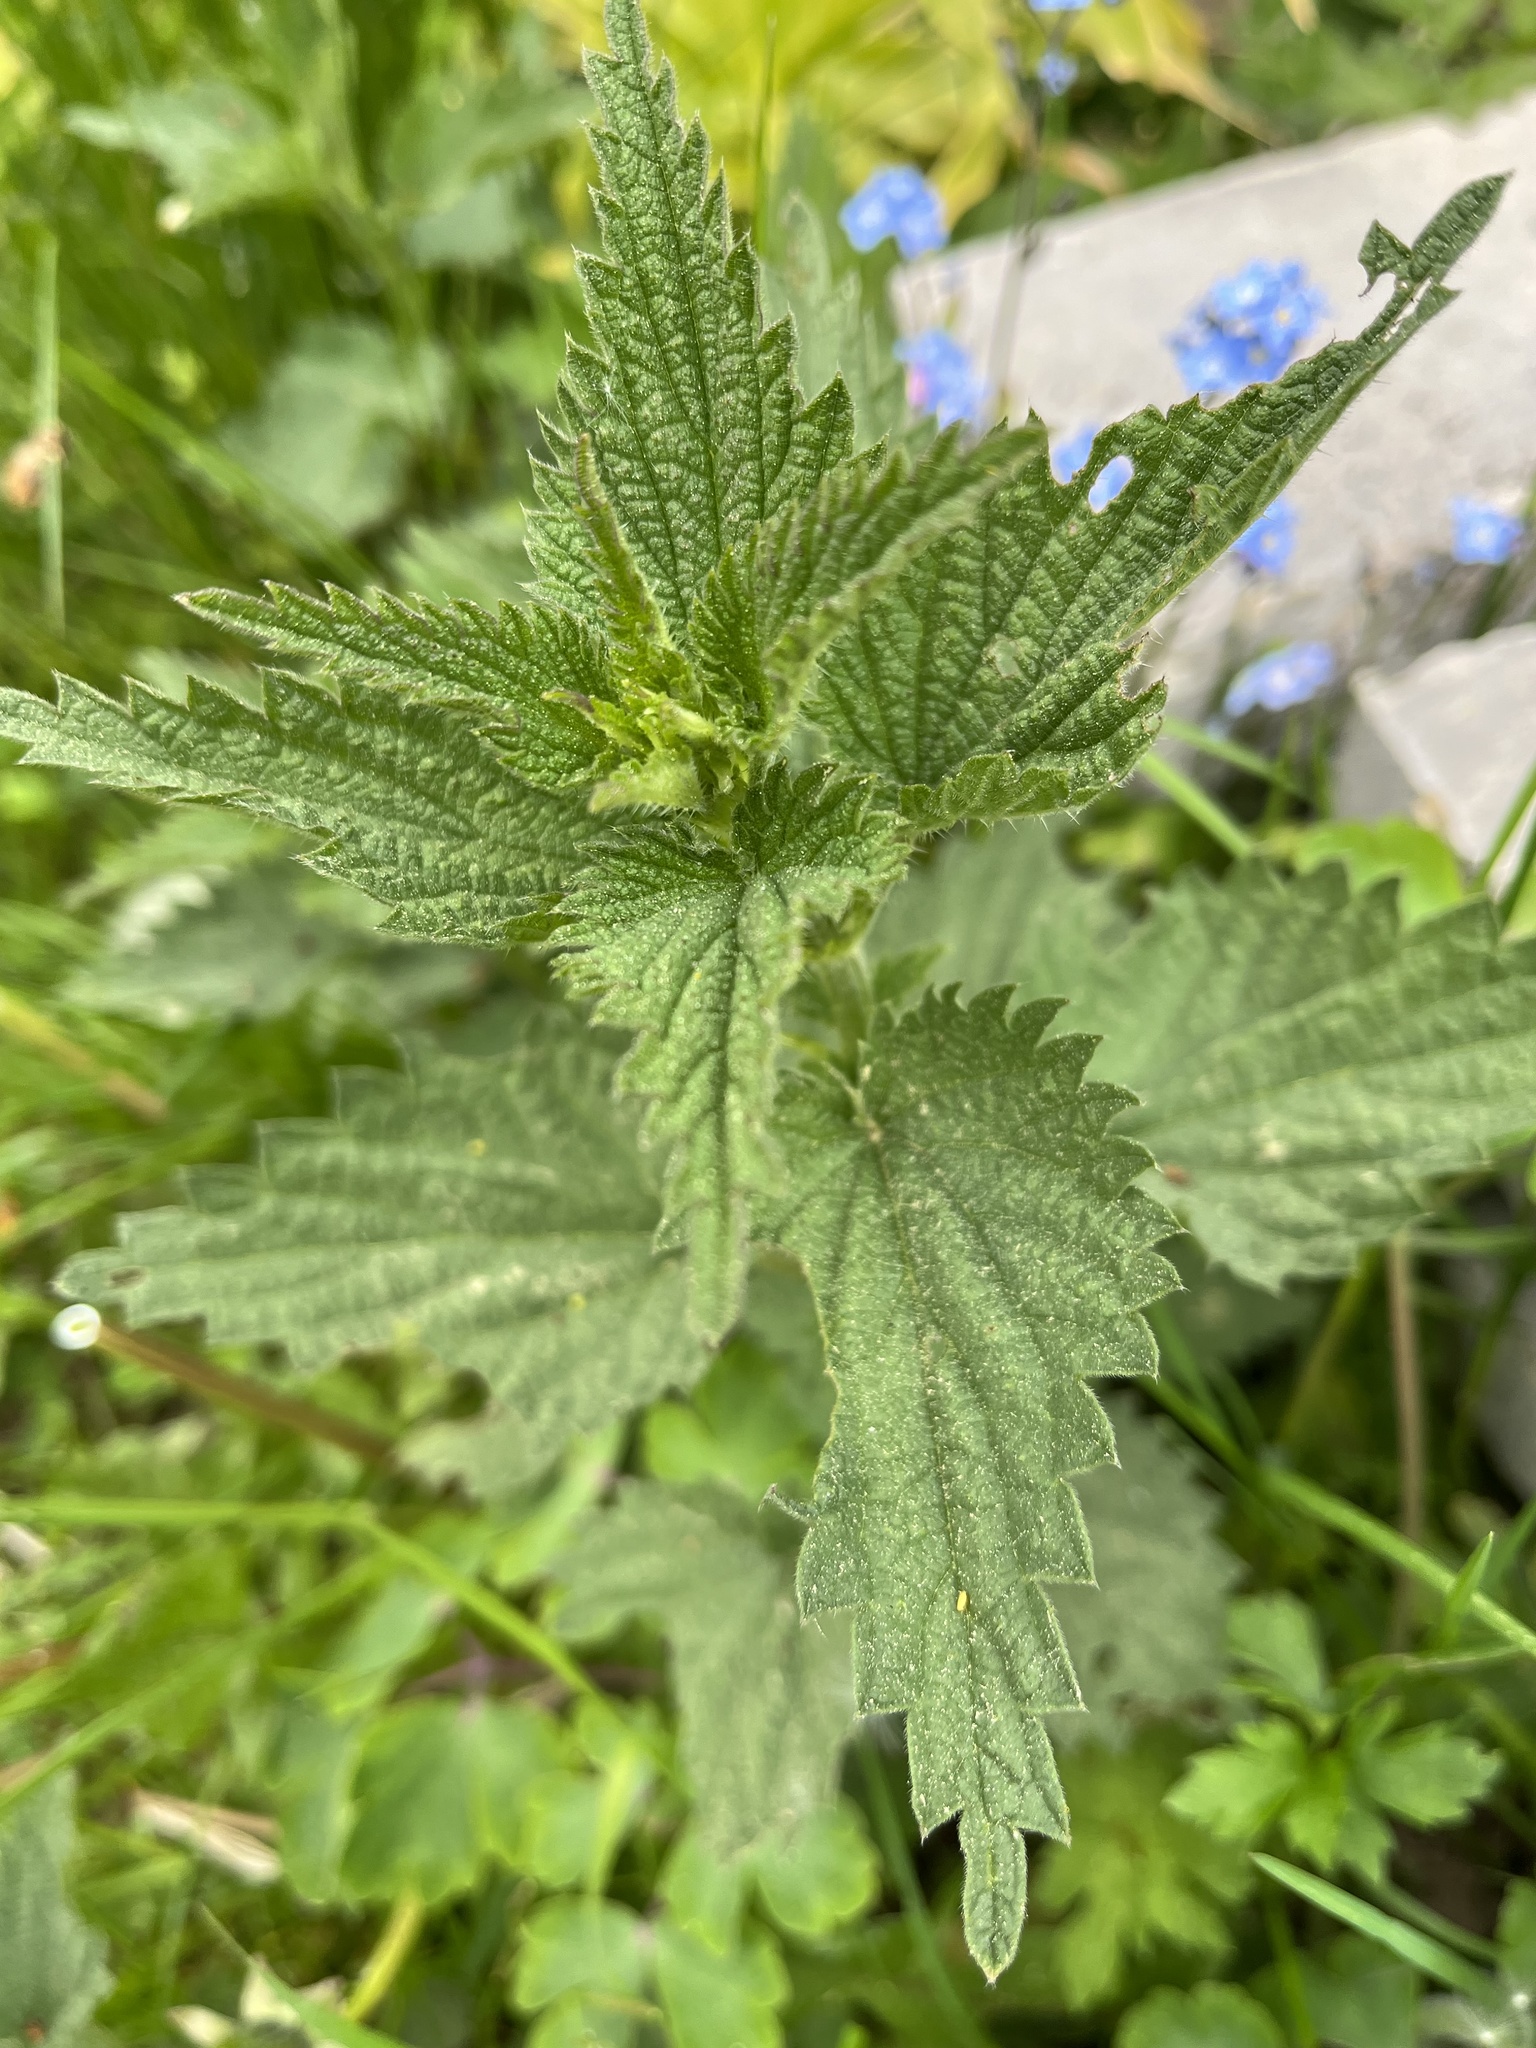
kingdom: Plantae
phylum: Tracheophyta
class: Magnoliopsida
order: Rosales
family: Urticaceae
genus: Urtica
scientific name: Urtica dioica
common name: Common nettle
